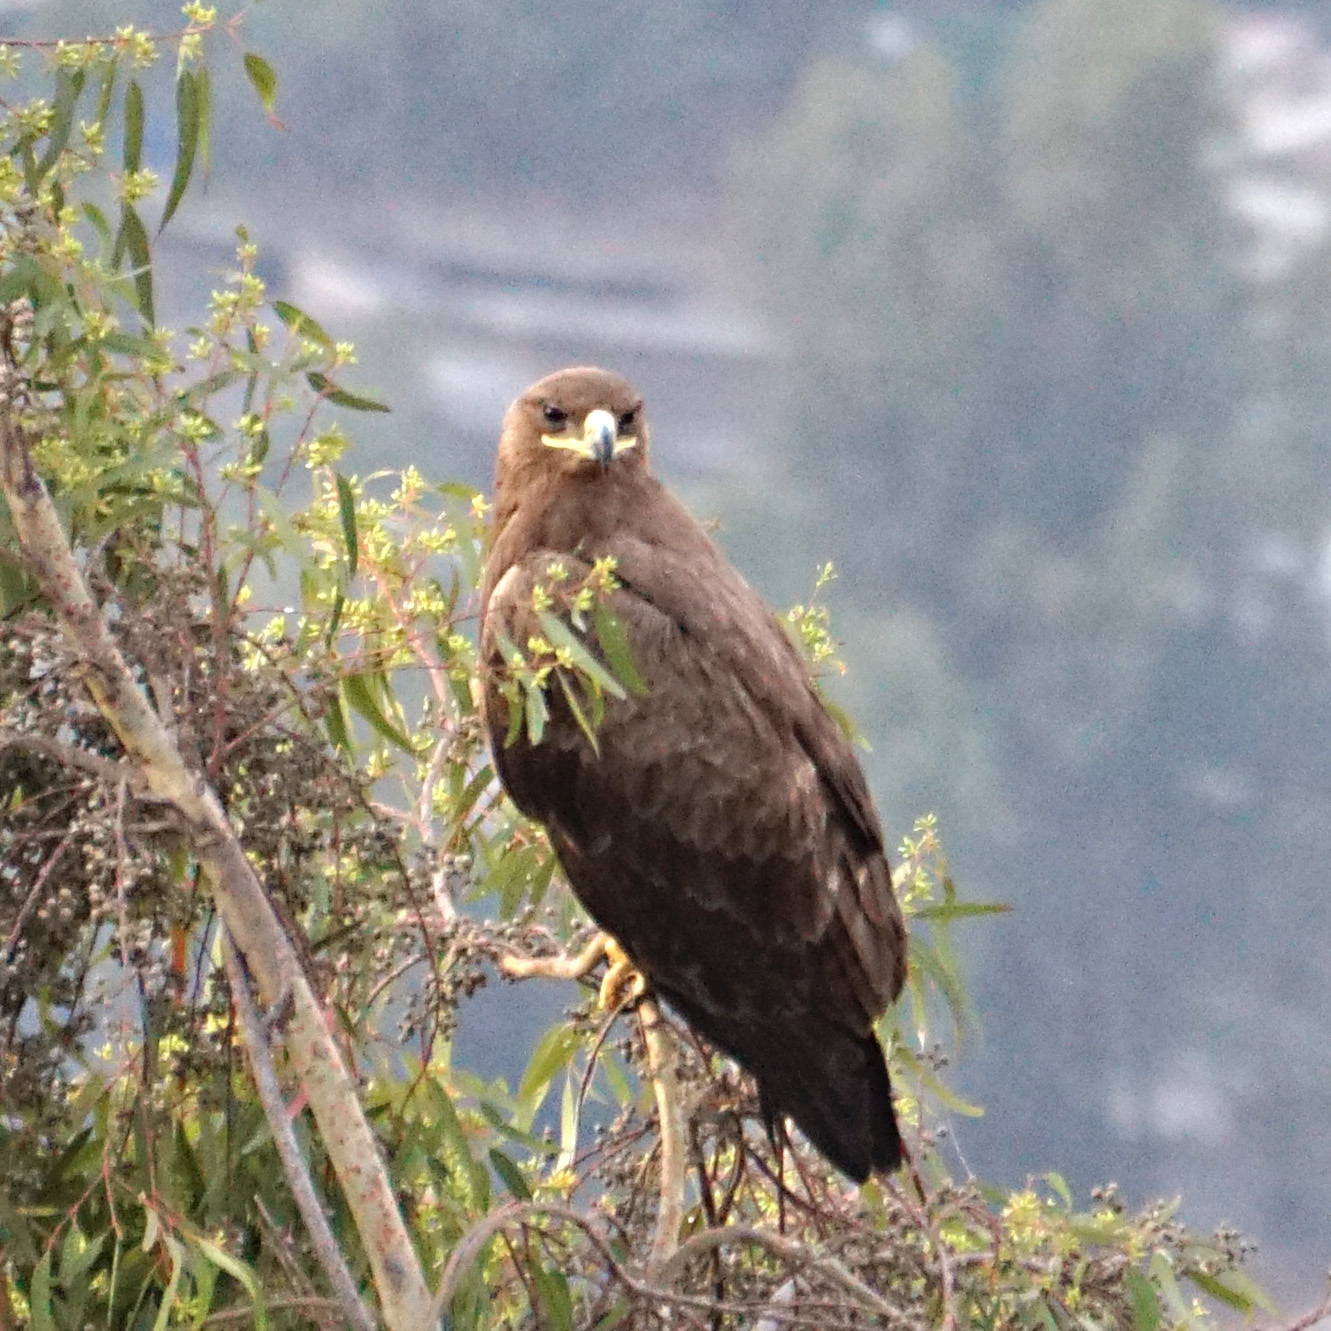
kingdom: Animalia
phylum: Chordata
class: Aves
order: Accipitriformes
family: Accipitridae
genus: Aquila
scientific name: Aquila nipalensis
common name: Steppe eagle
